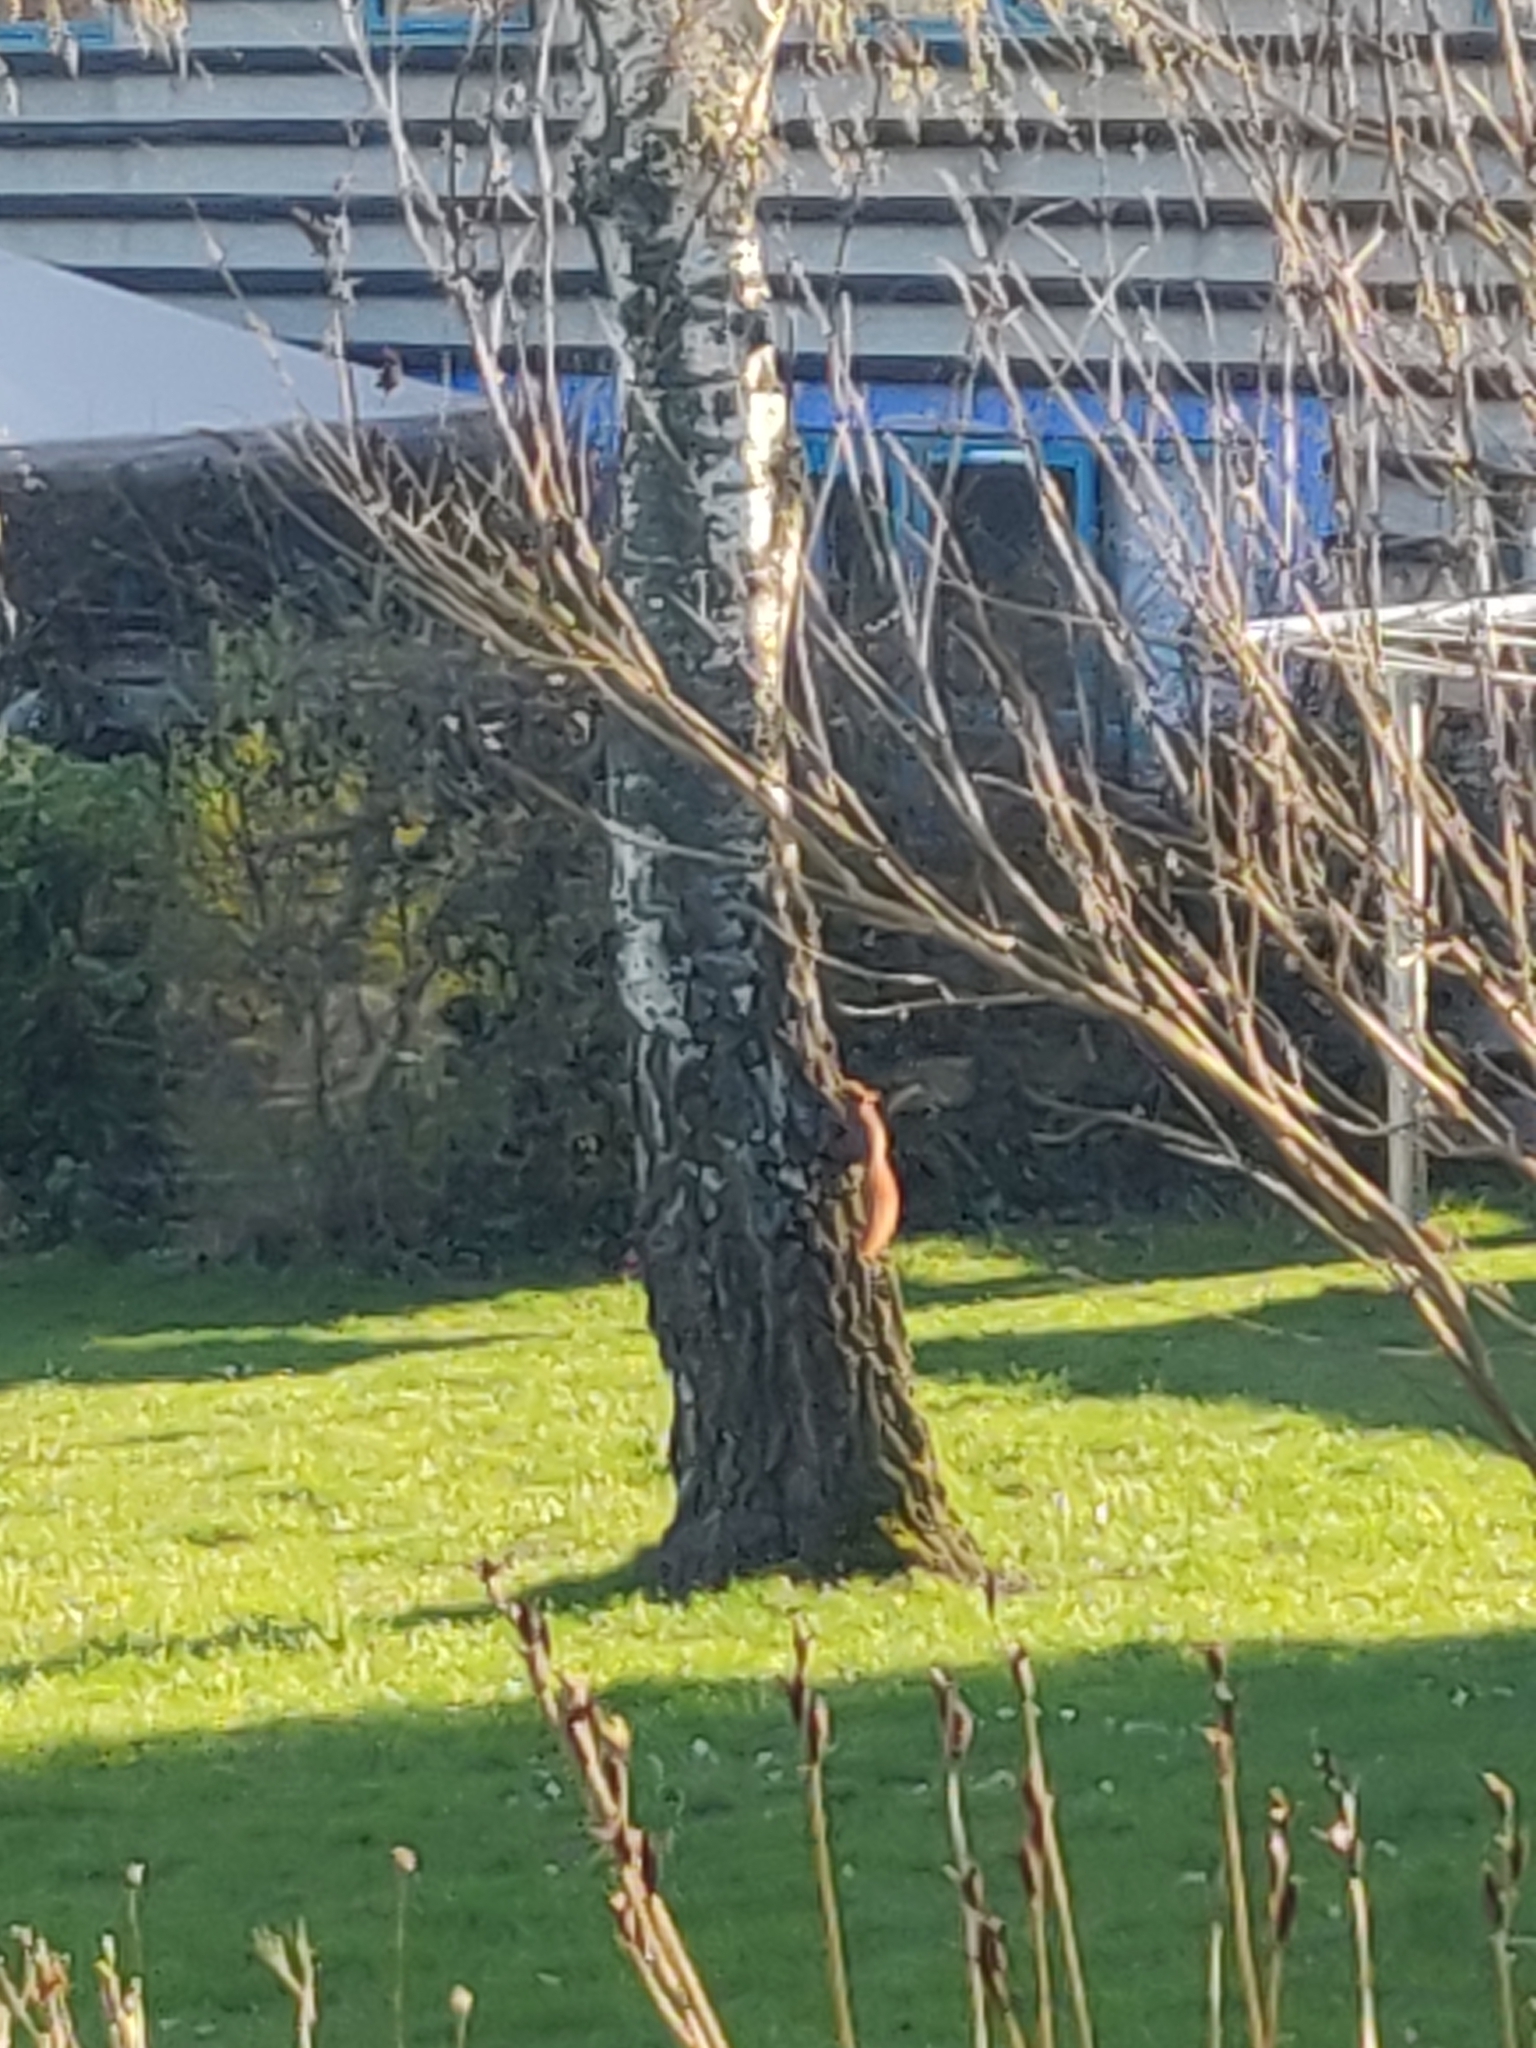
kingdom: Animalia
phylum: Chordata
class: Mammalia
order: Rodentia
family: Sciuridae
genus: Sciurus
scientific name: Sciurus vulgaris
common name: Eurasian red squirrel
